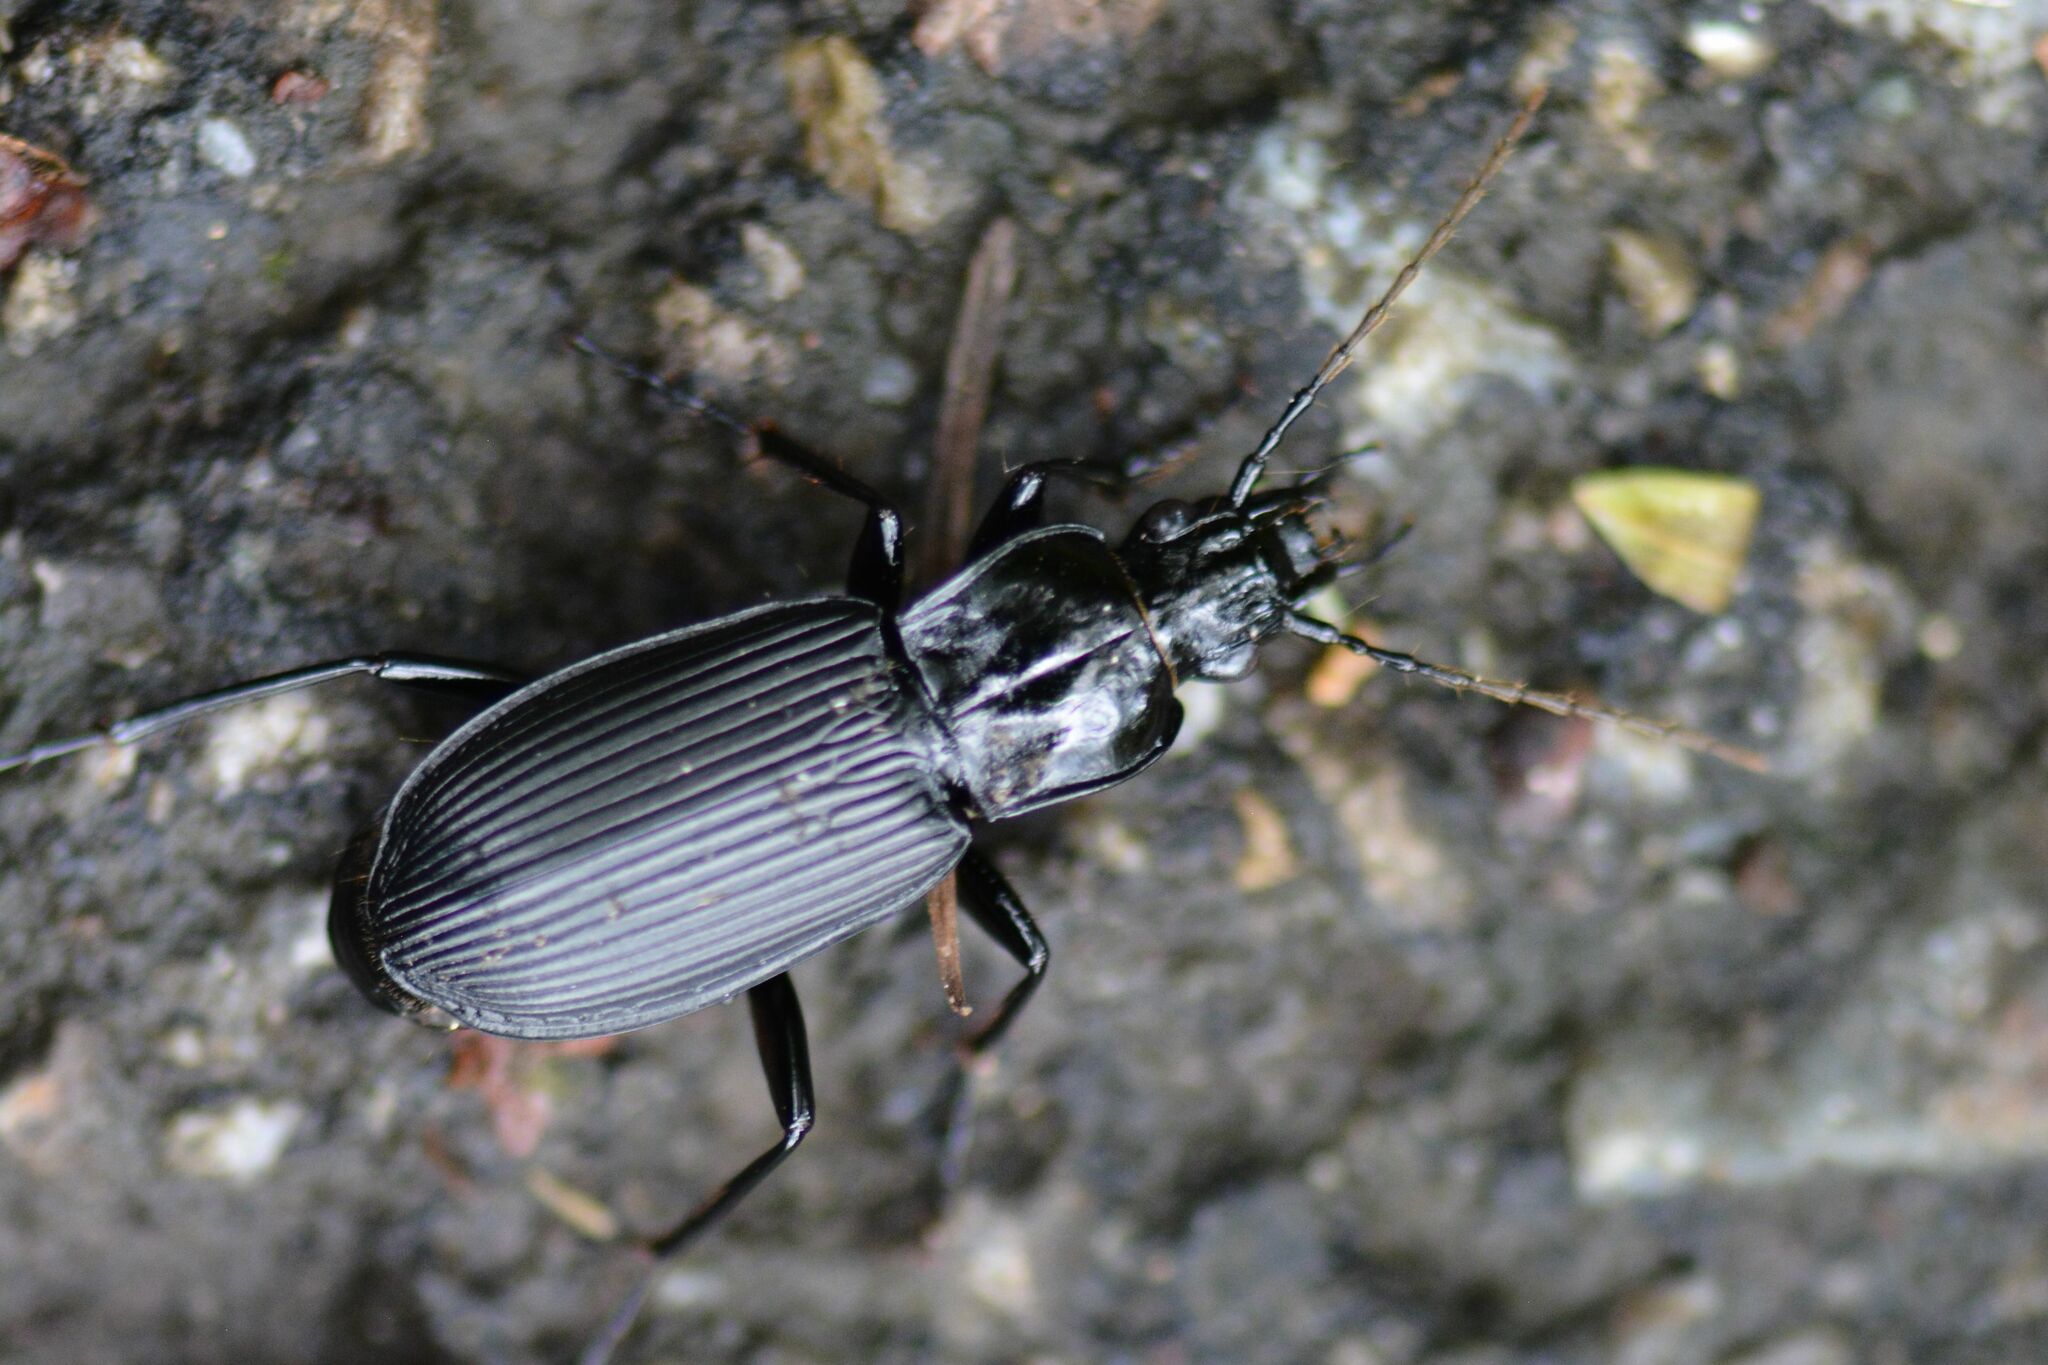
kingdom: Animalia
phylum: Arthropoda
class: Insecta
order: Coleoptera
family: Carabidae
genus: Pterostichus
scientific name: Pterostichus niger
